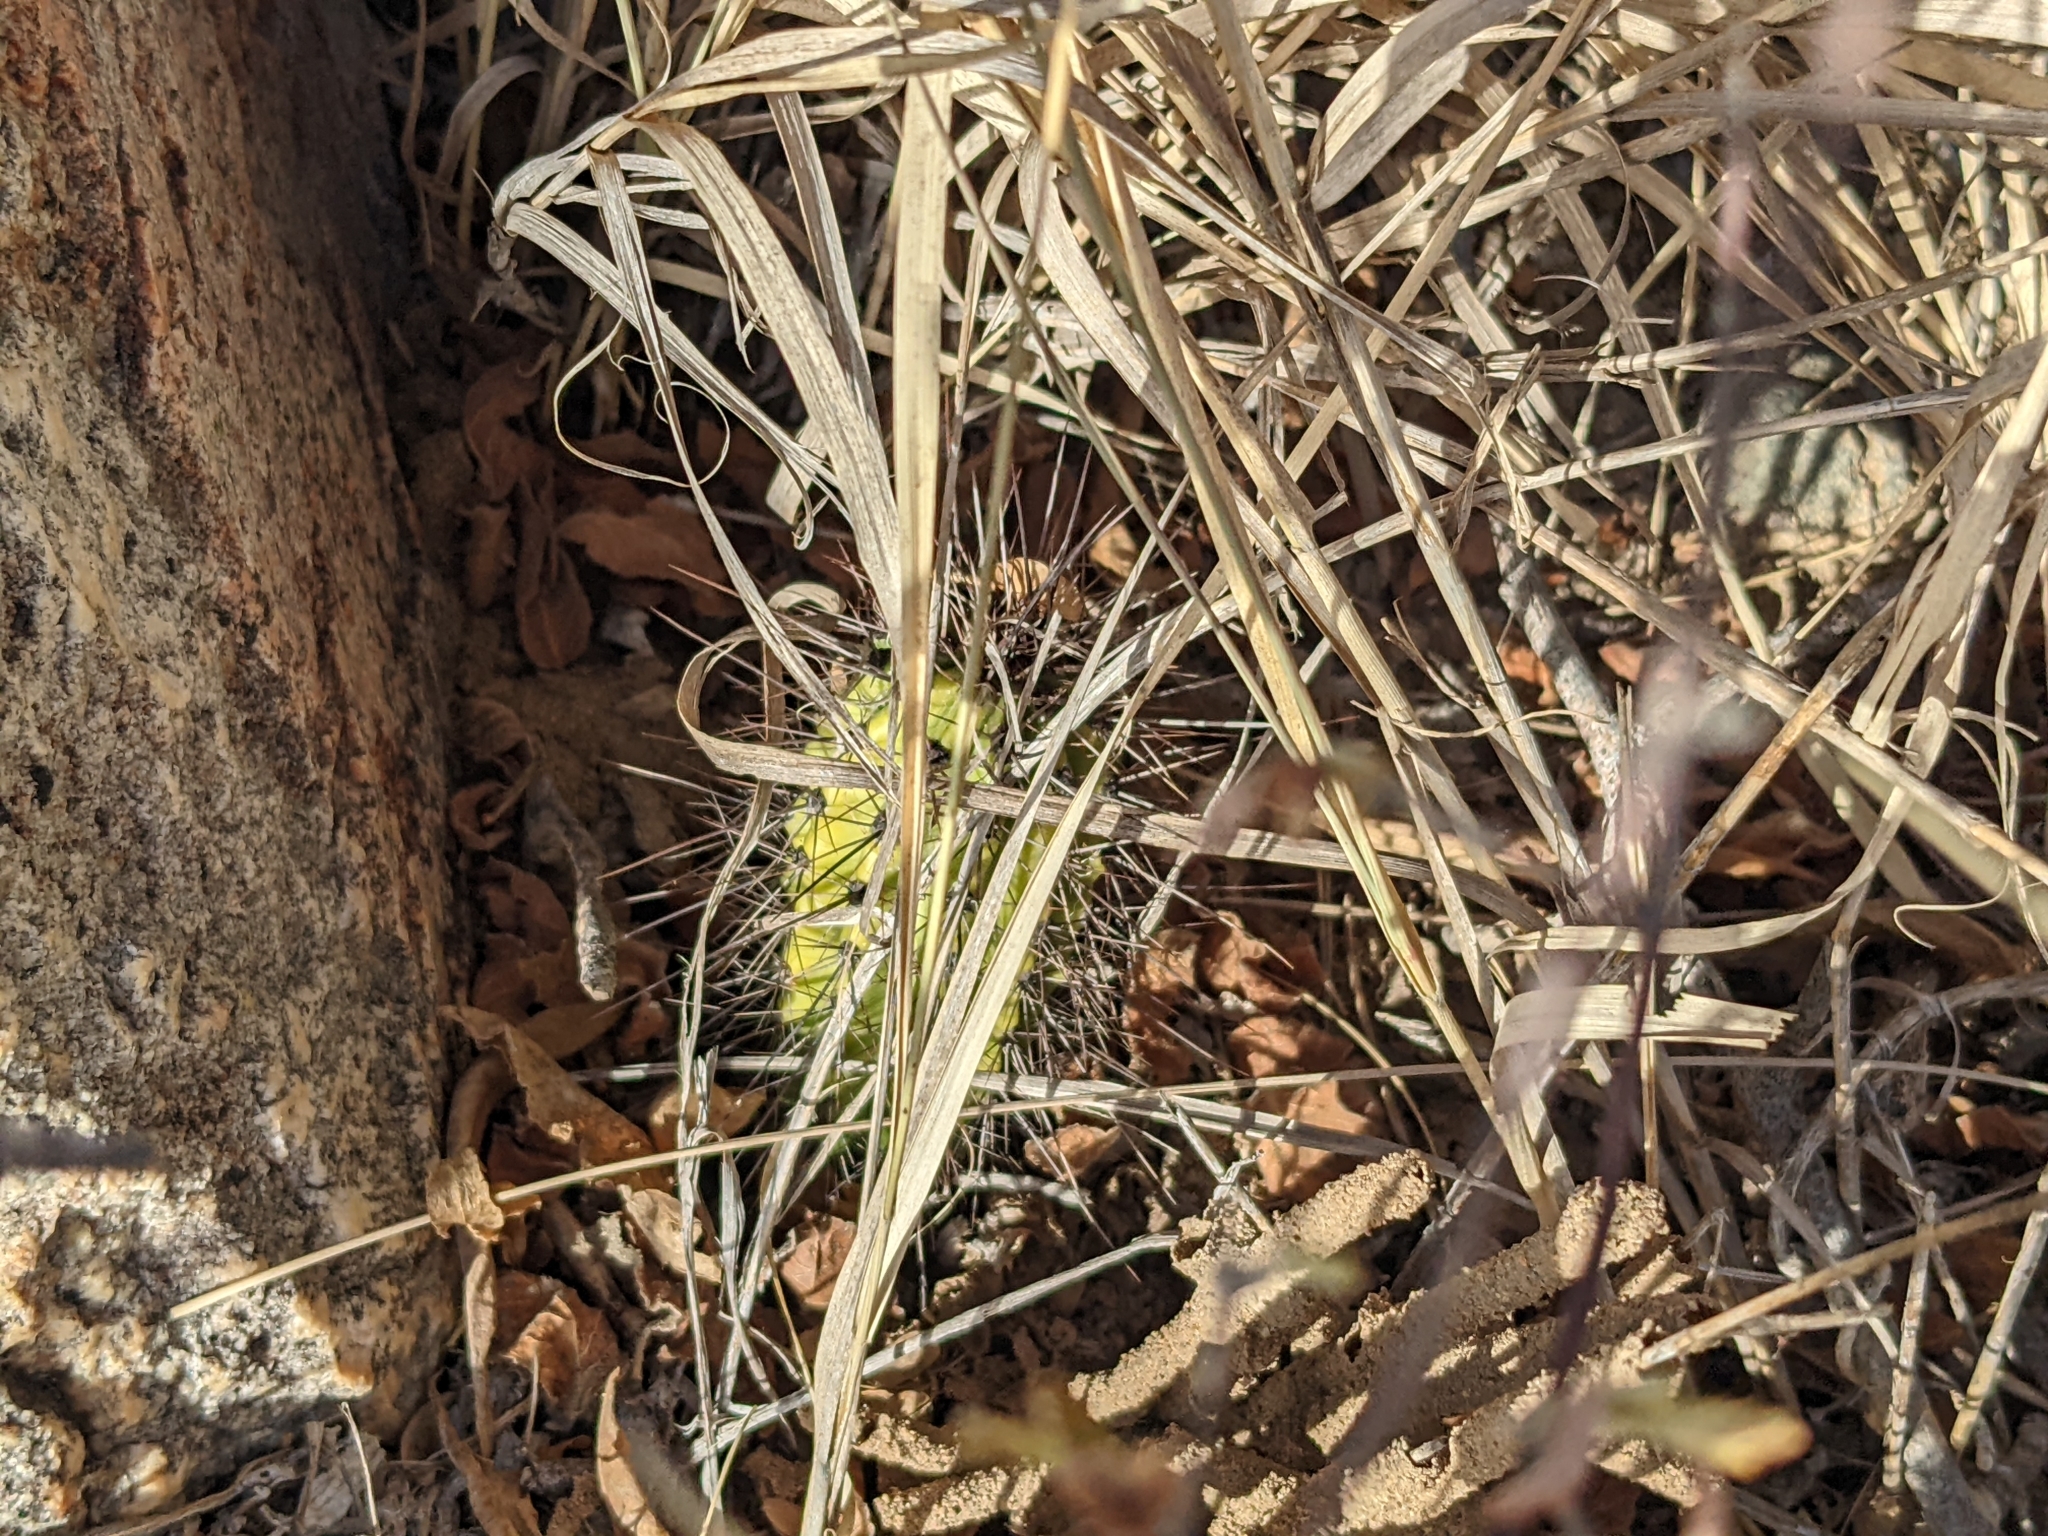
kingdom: Plantae
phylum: Tracheophyta
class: Magnoliopsida
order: Caryophyllales
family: Cactaceae
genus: Stenocereus
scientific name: Stenocereus thurberi
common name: Organ pipe cactus
